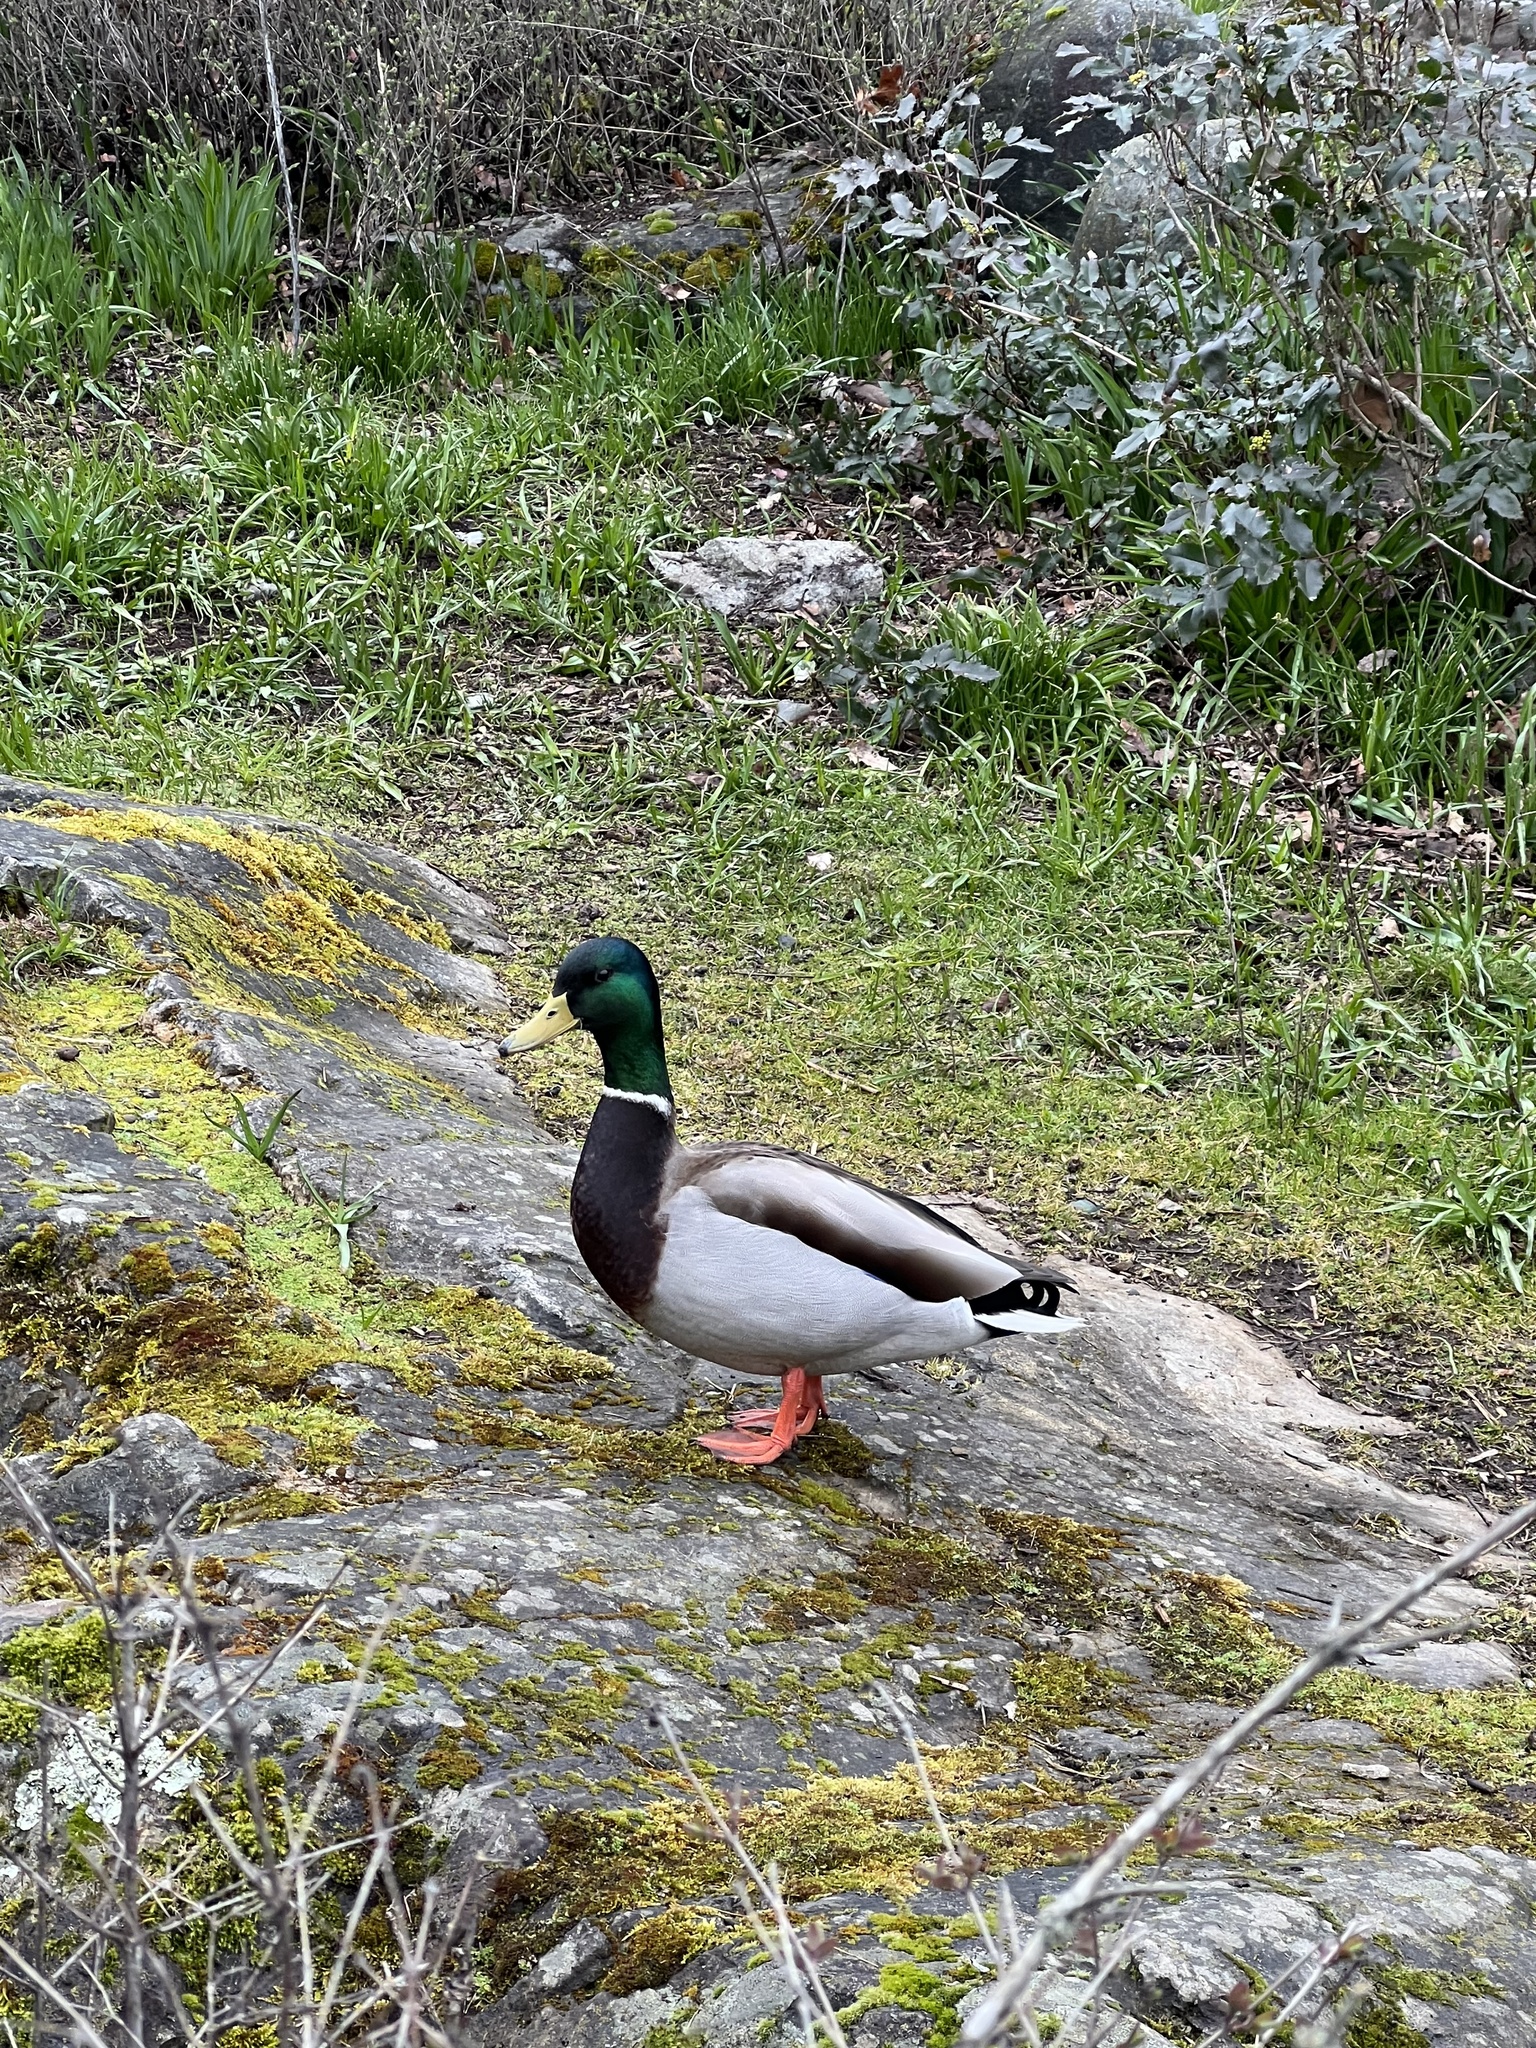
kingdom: Animalia
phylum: Chordata
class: Aves
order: Anseriformes
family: Anatidae
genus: Anas
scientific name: Anas platyrhynchos
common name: Mallard
